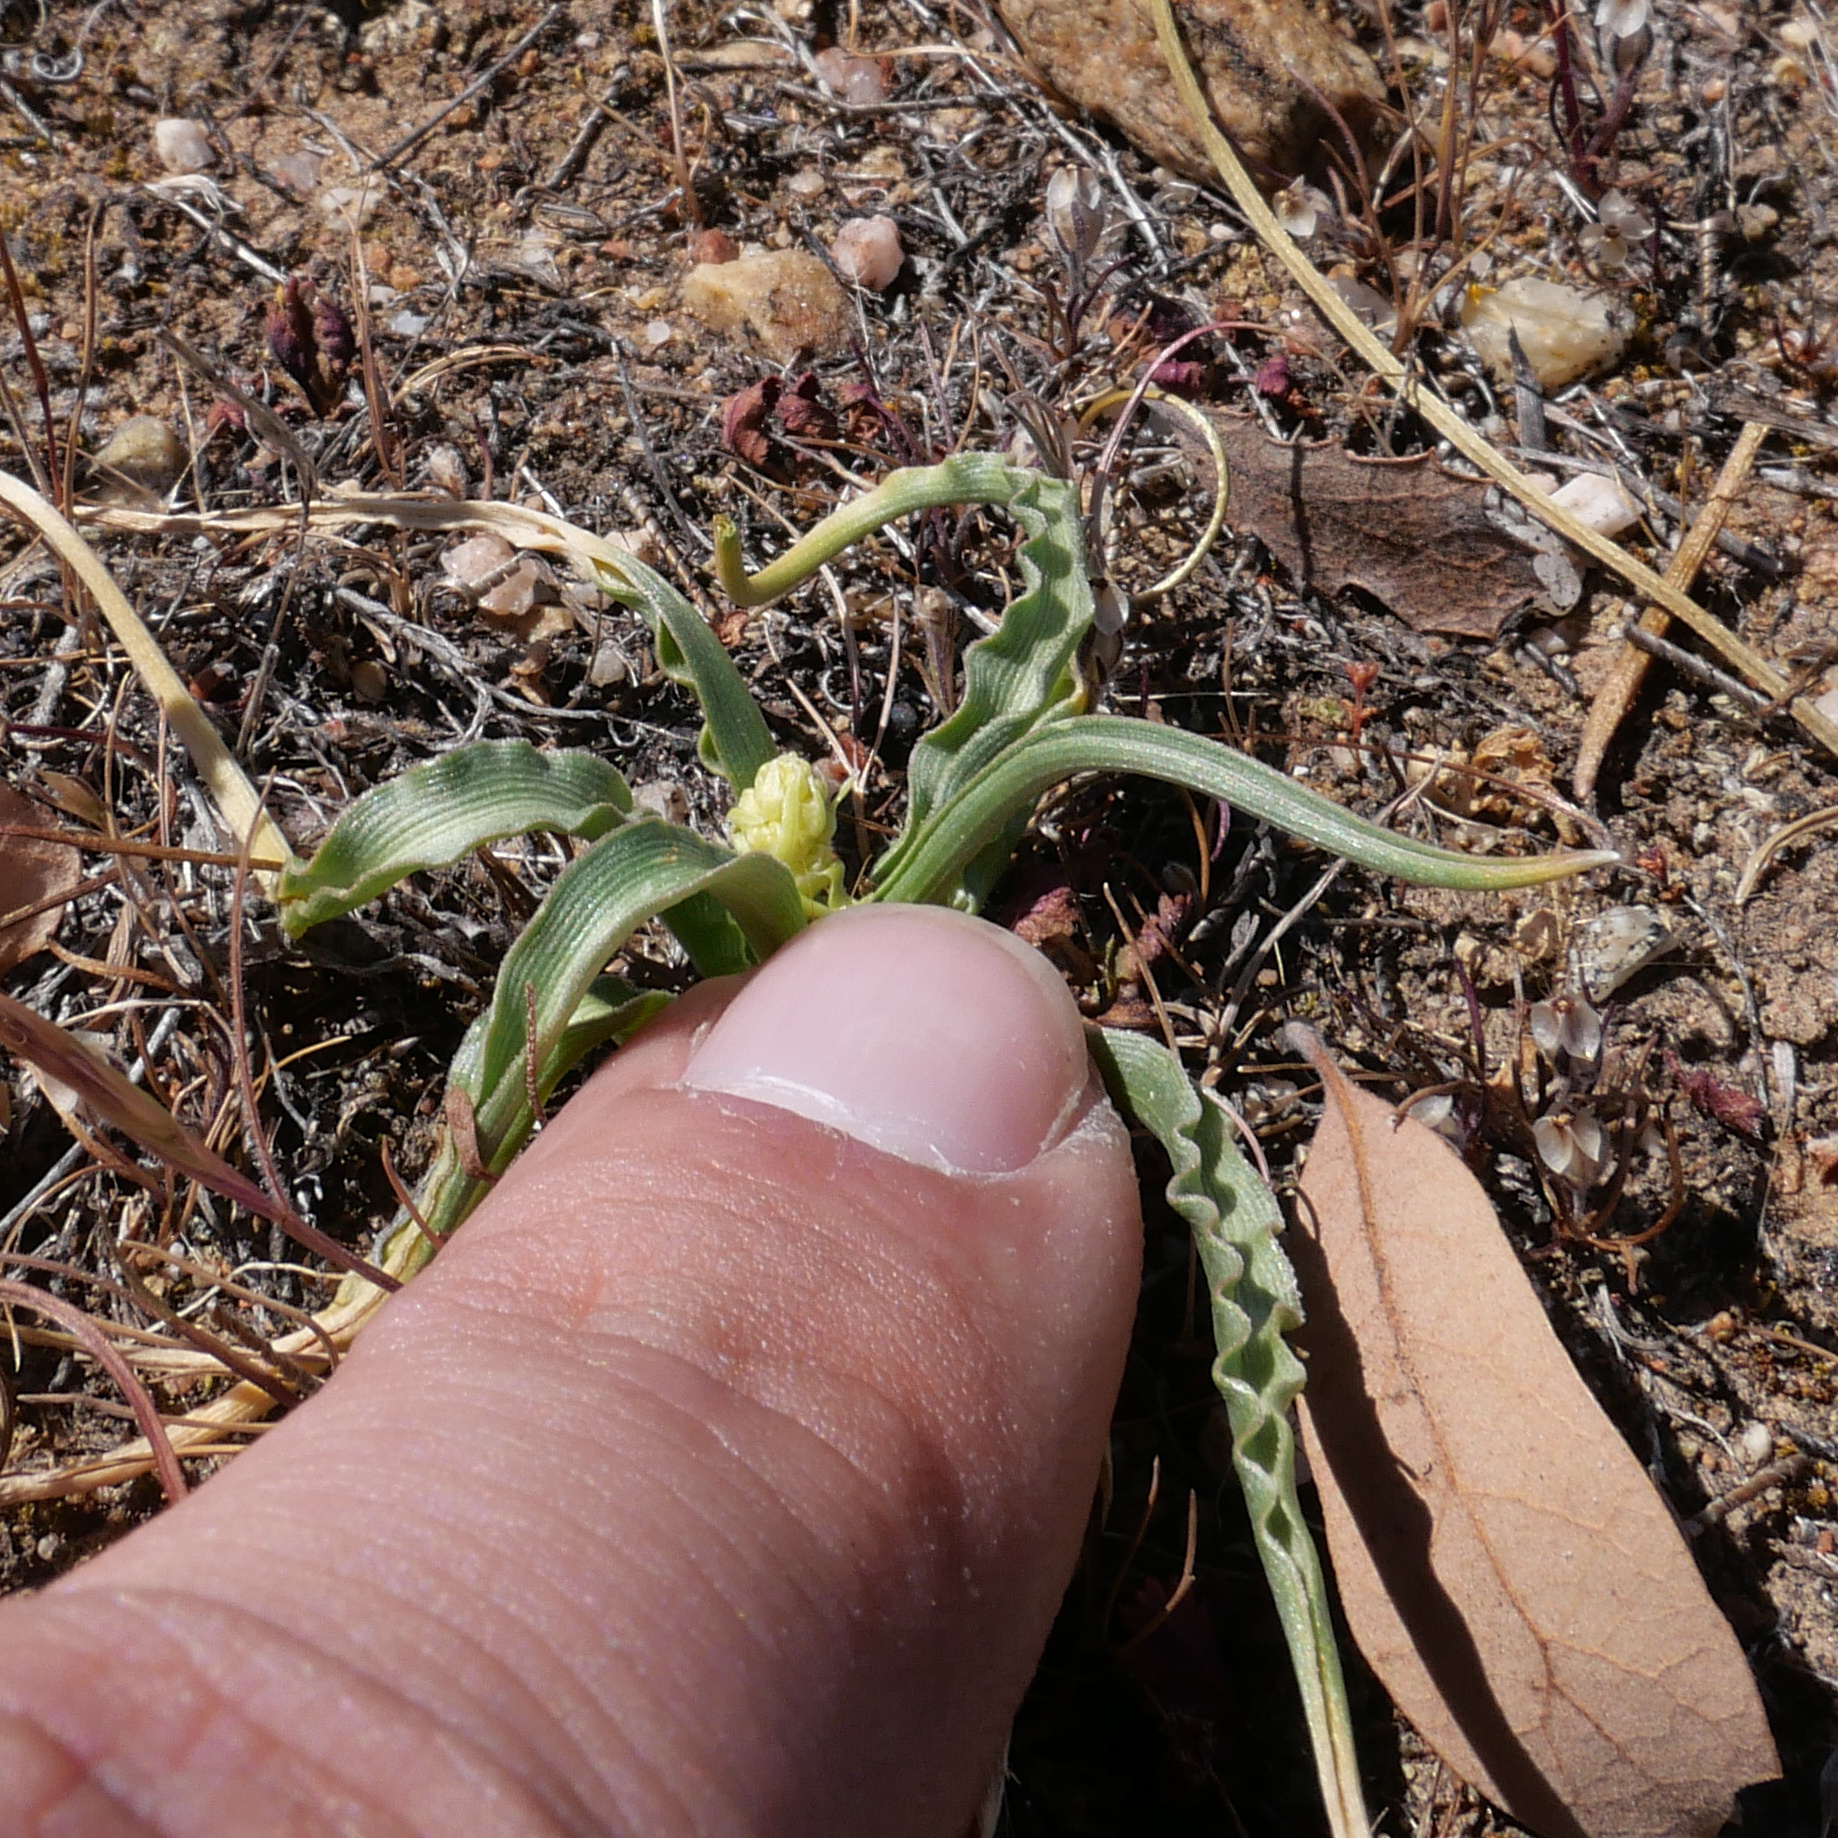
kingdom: Plantae
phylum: Tracheophyta
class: Liliopsida
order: Asparagales
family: Asparagaceae
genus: Hooveria
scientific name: Hooveria purpurea
